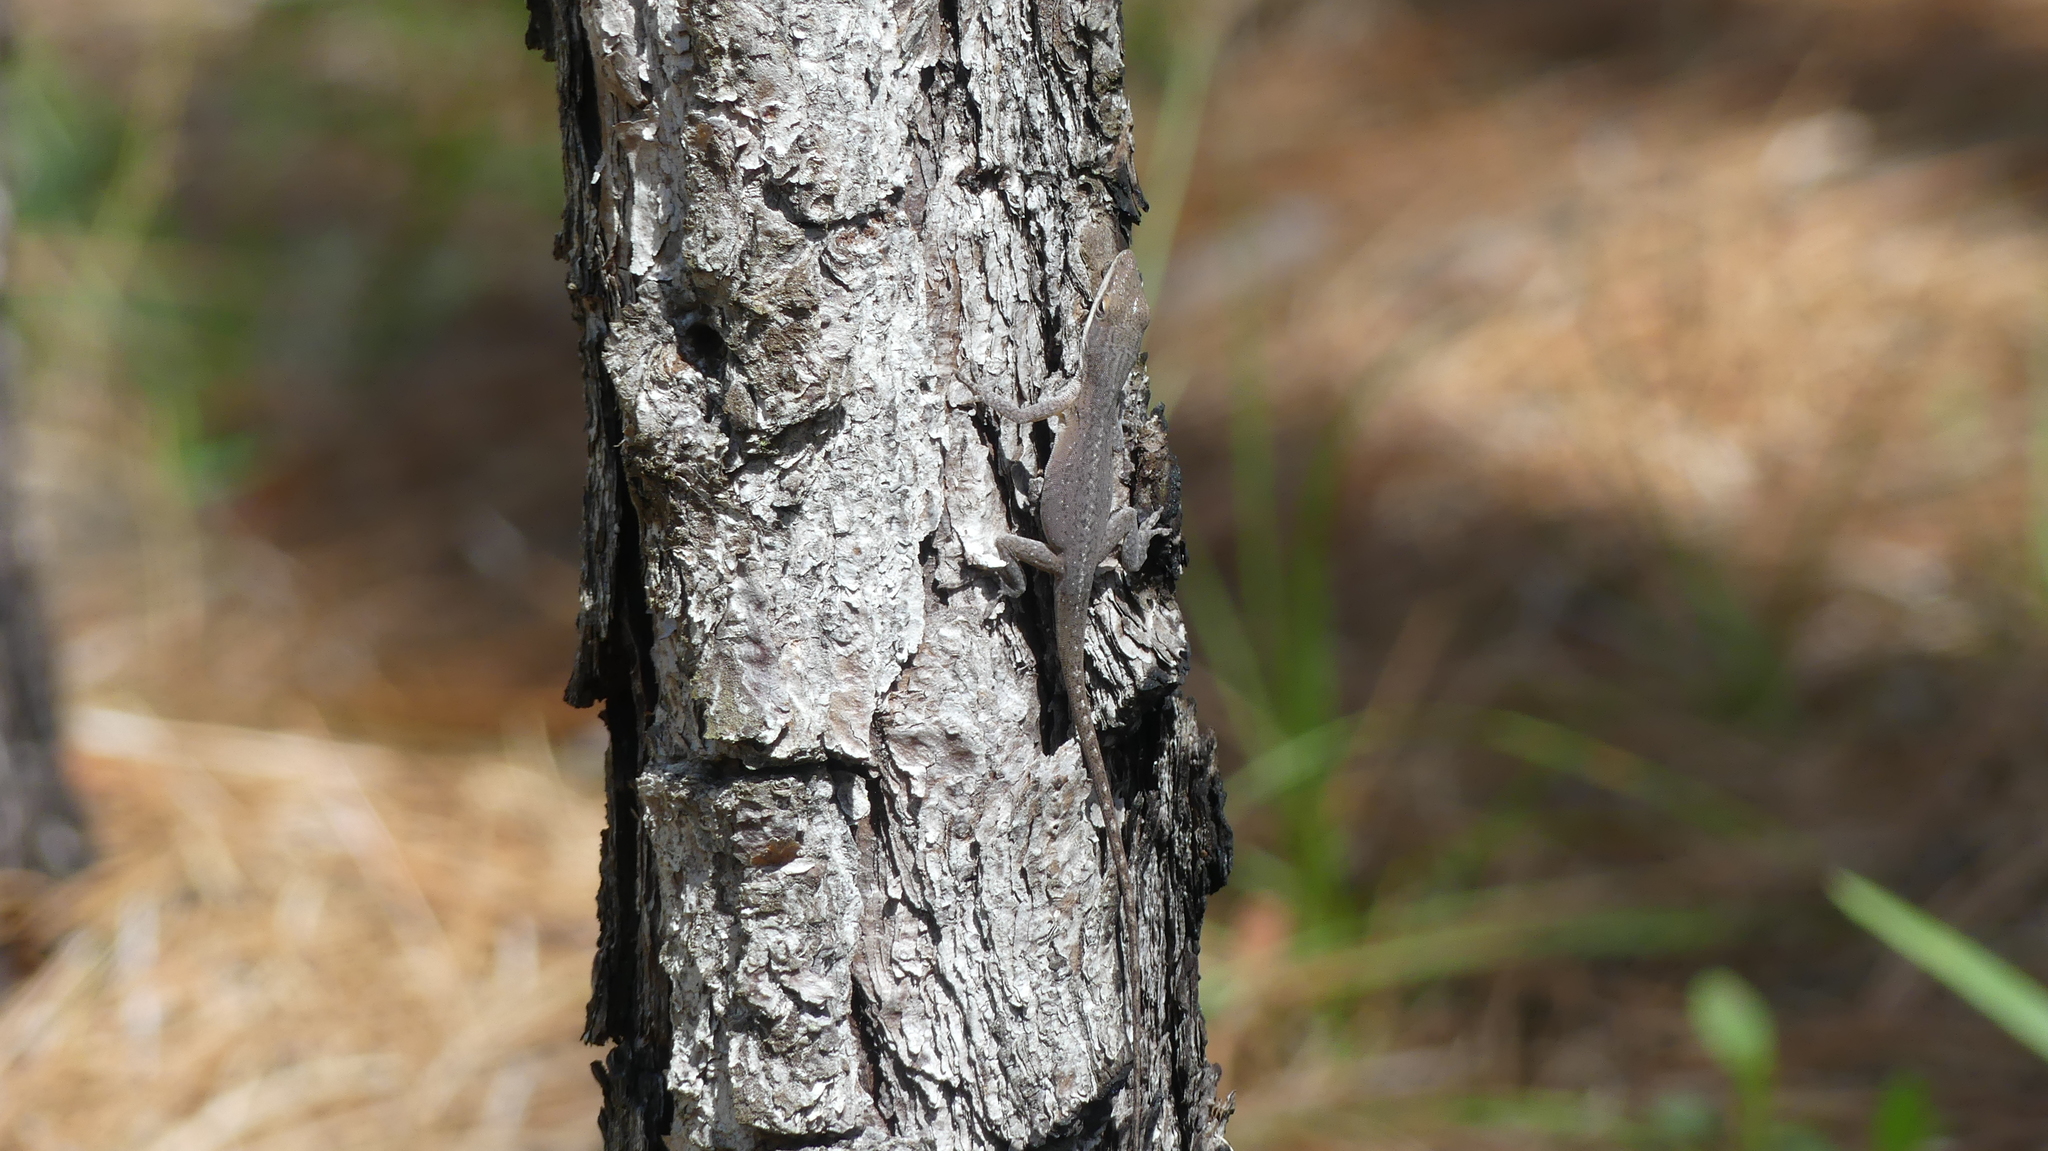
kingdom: Animalia
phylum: Chordata
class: Squamata
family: Dactyloidae
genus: Anolis
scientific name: Anolis carolinensis
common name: Green anole
